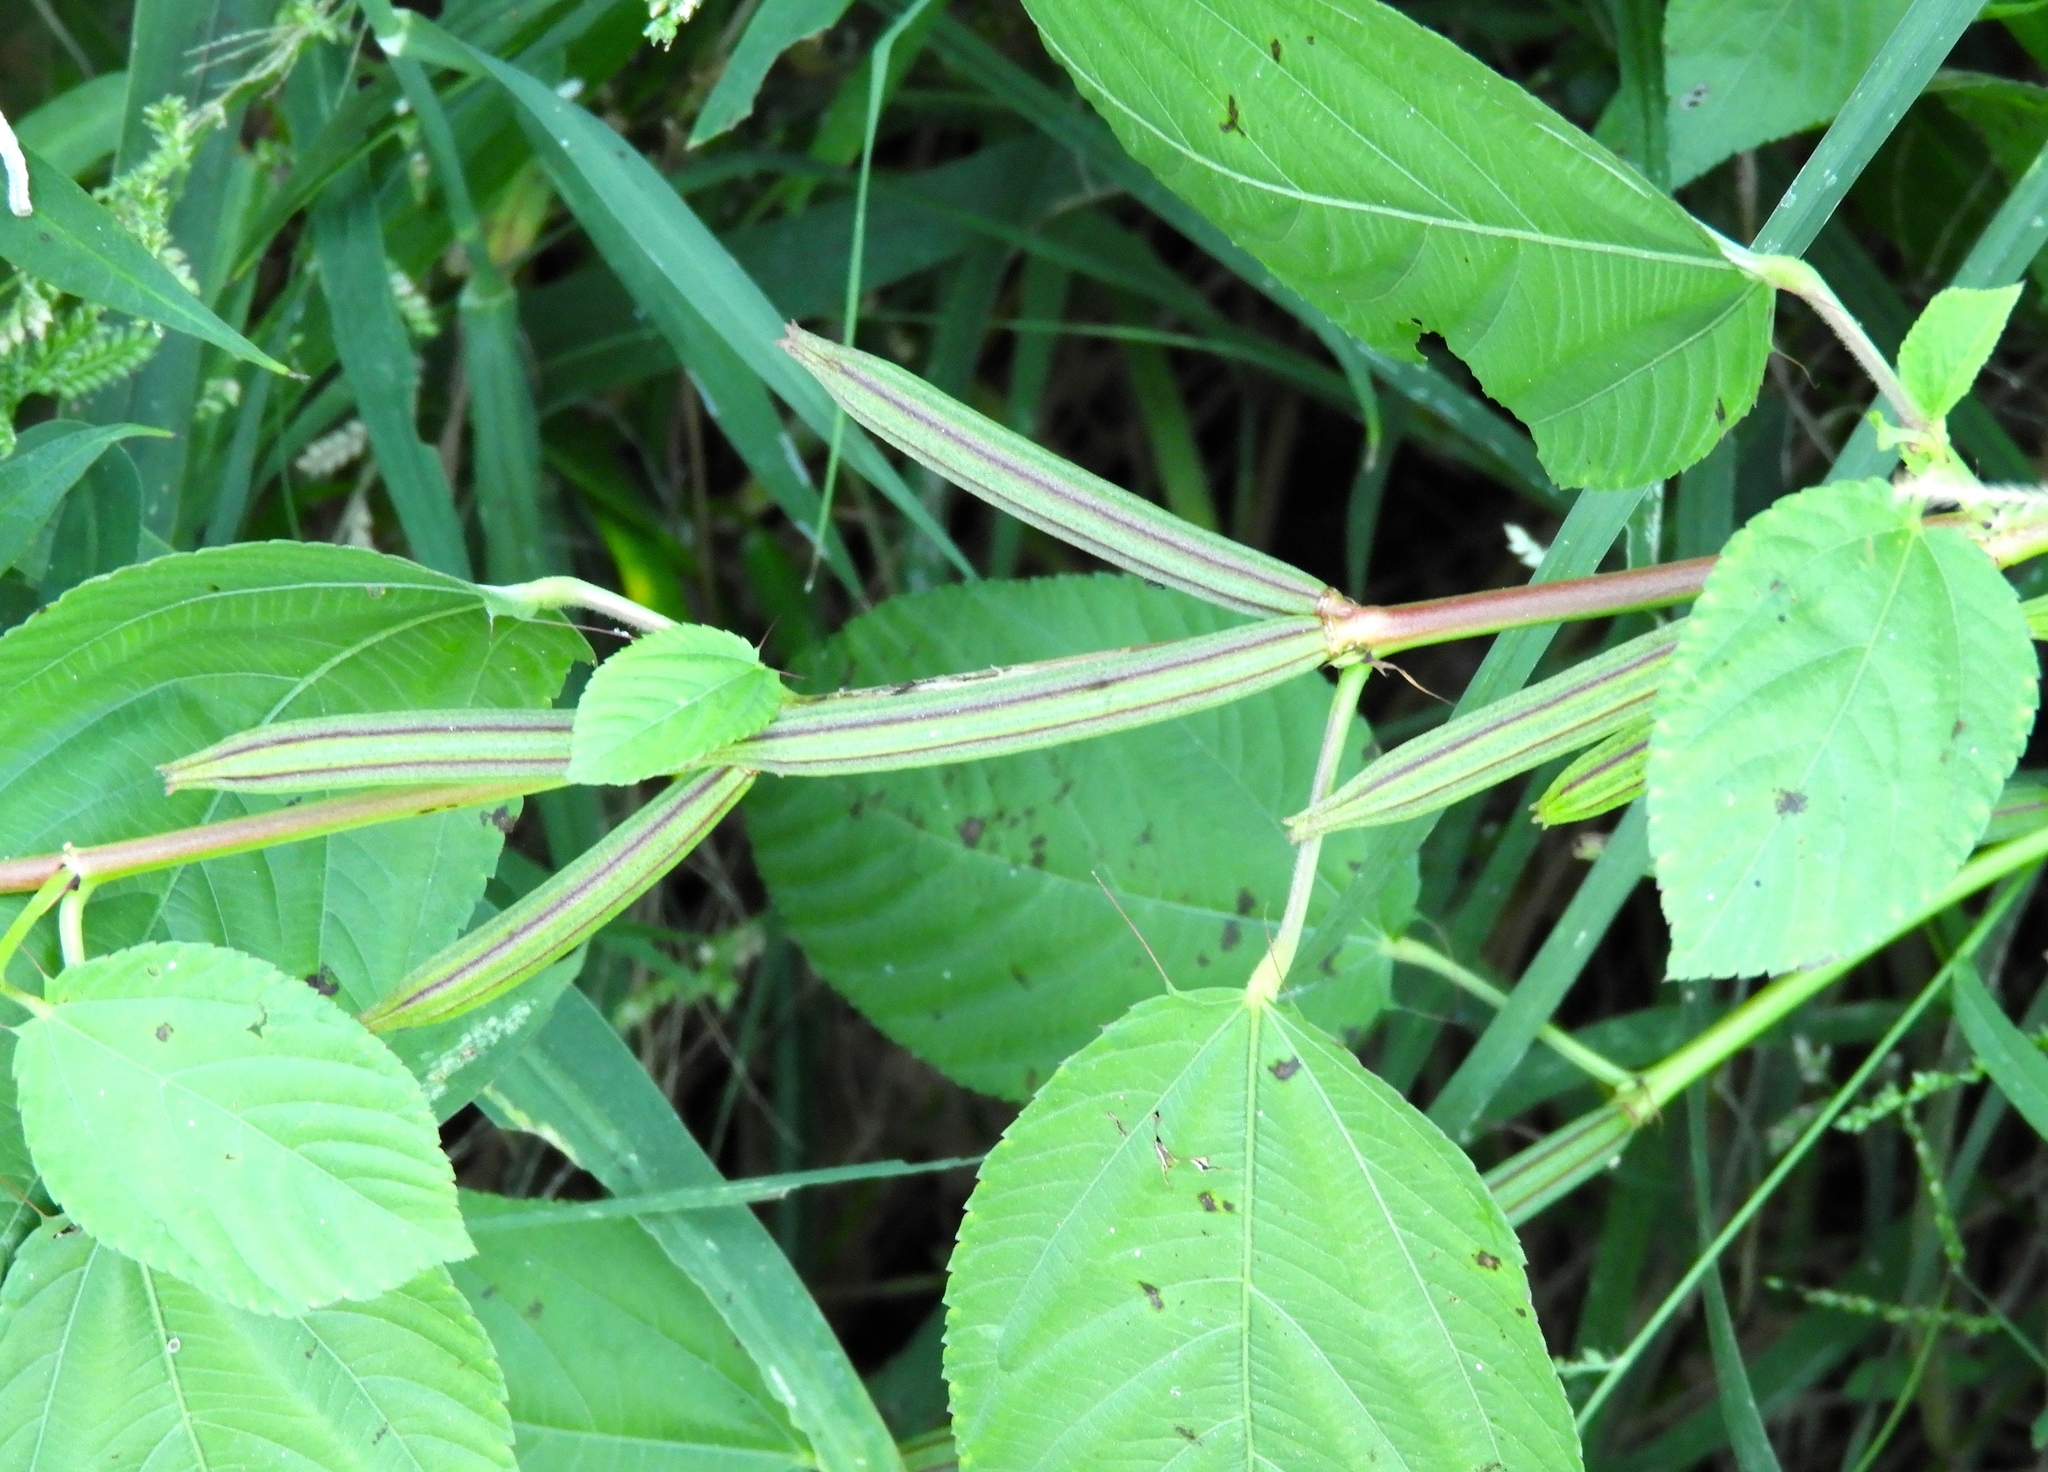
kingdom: Plantae
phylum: Tracheophyta
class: Magnoliopsida
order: Malvales
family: Malvaceae
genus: Corchorus
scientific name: Corchorus olitorius
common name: Tossa jute
